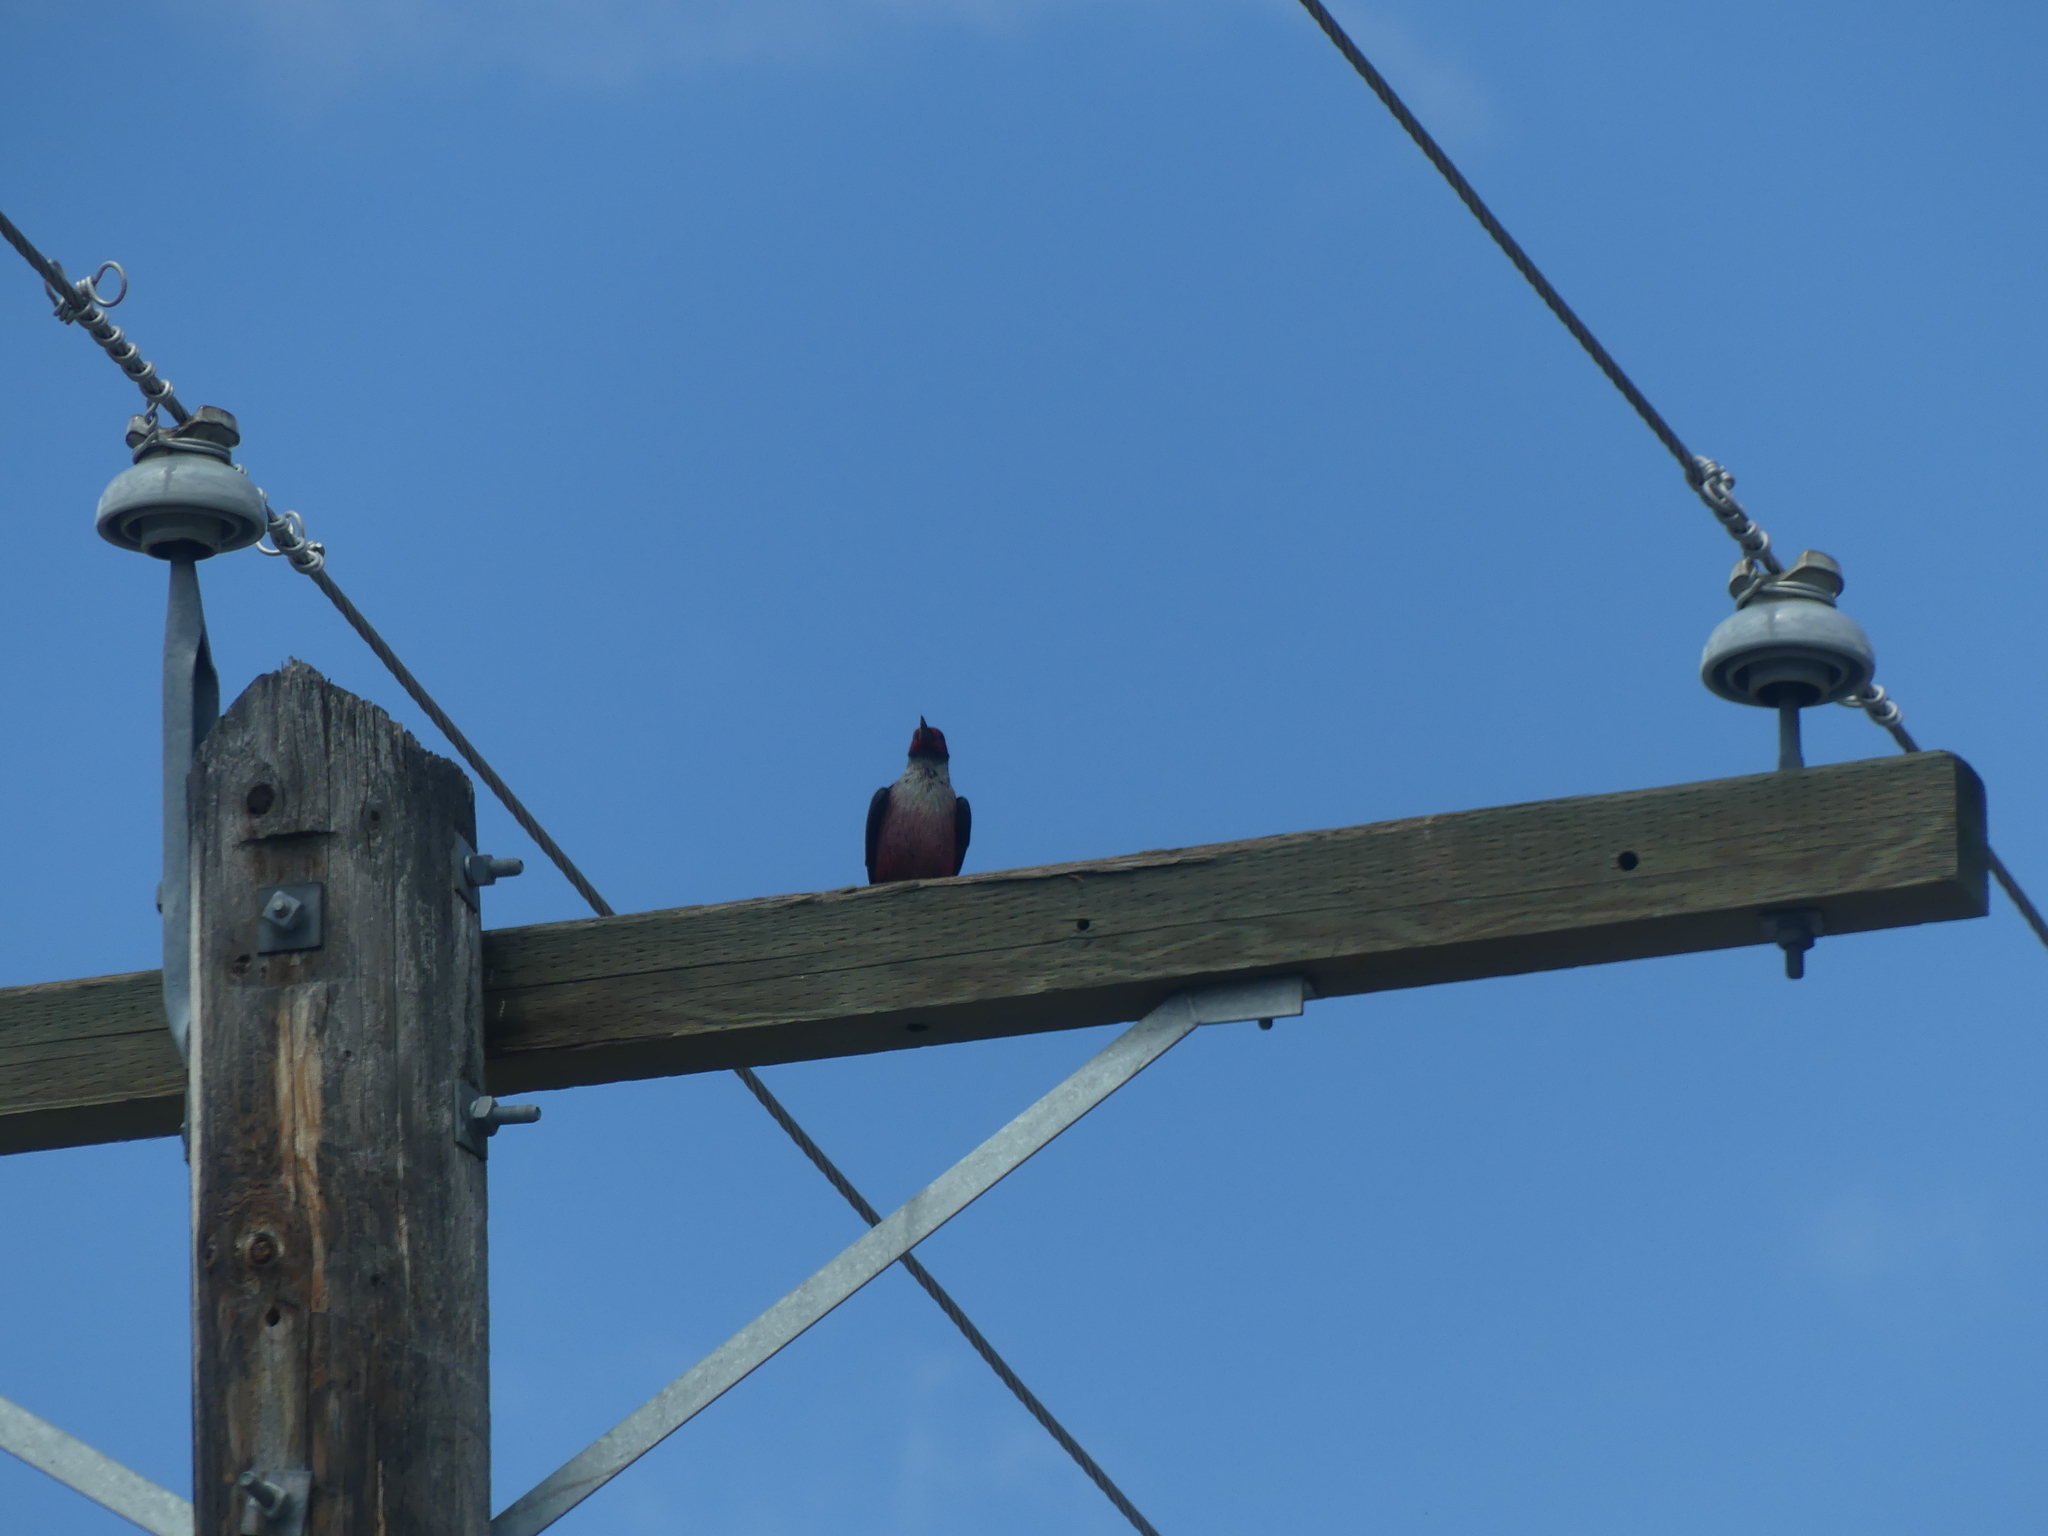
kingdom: Animalia
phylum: Chordata
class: Aves
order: Piciformes
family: Picidae
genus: Melanerpes
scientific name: Melanerpes lewis
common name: Lewis's woodpecker
